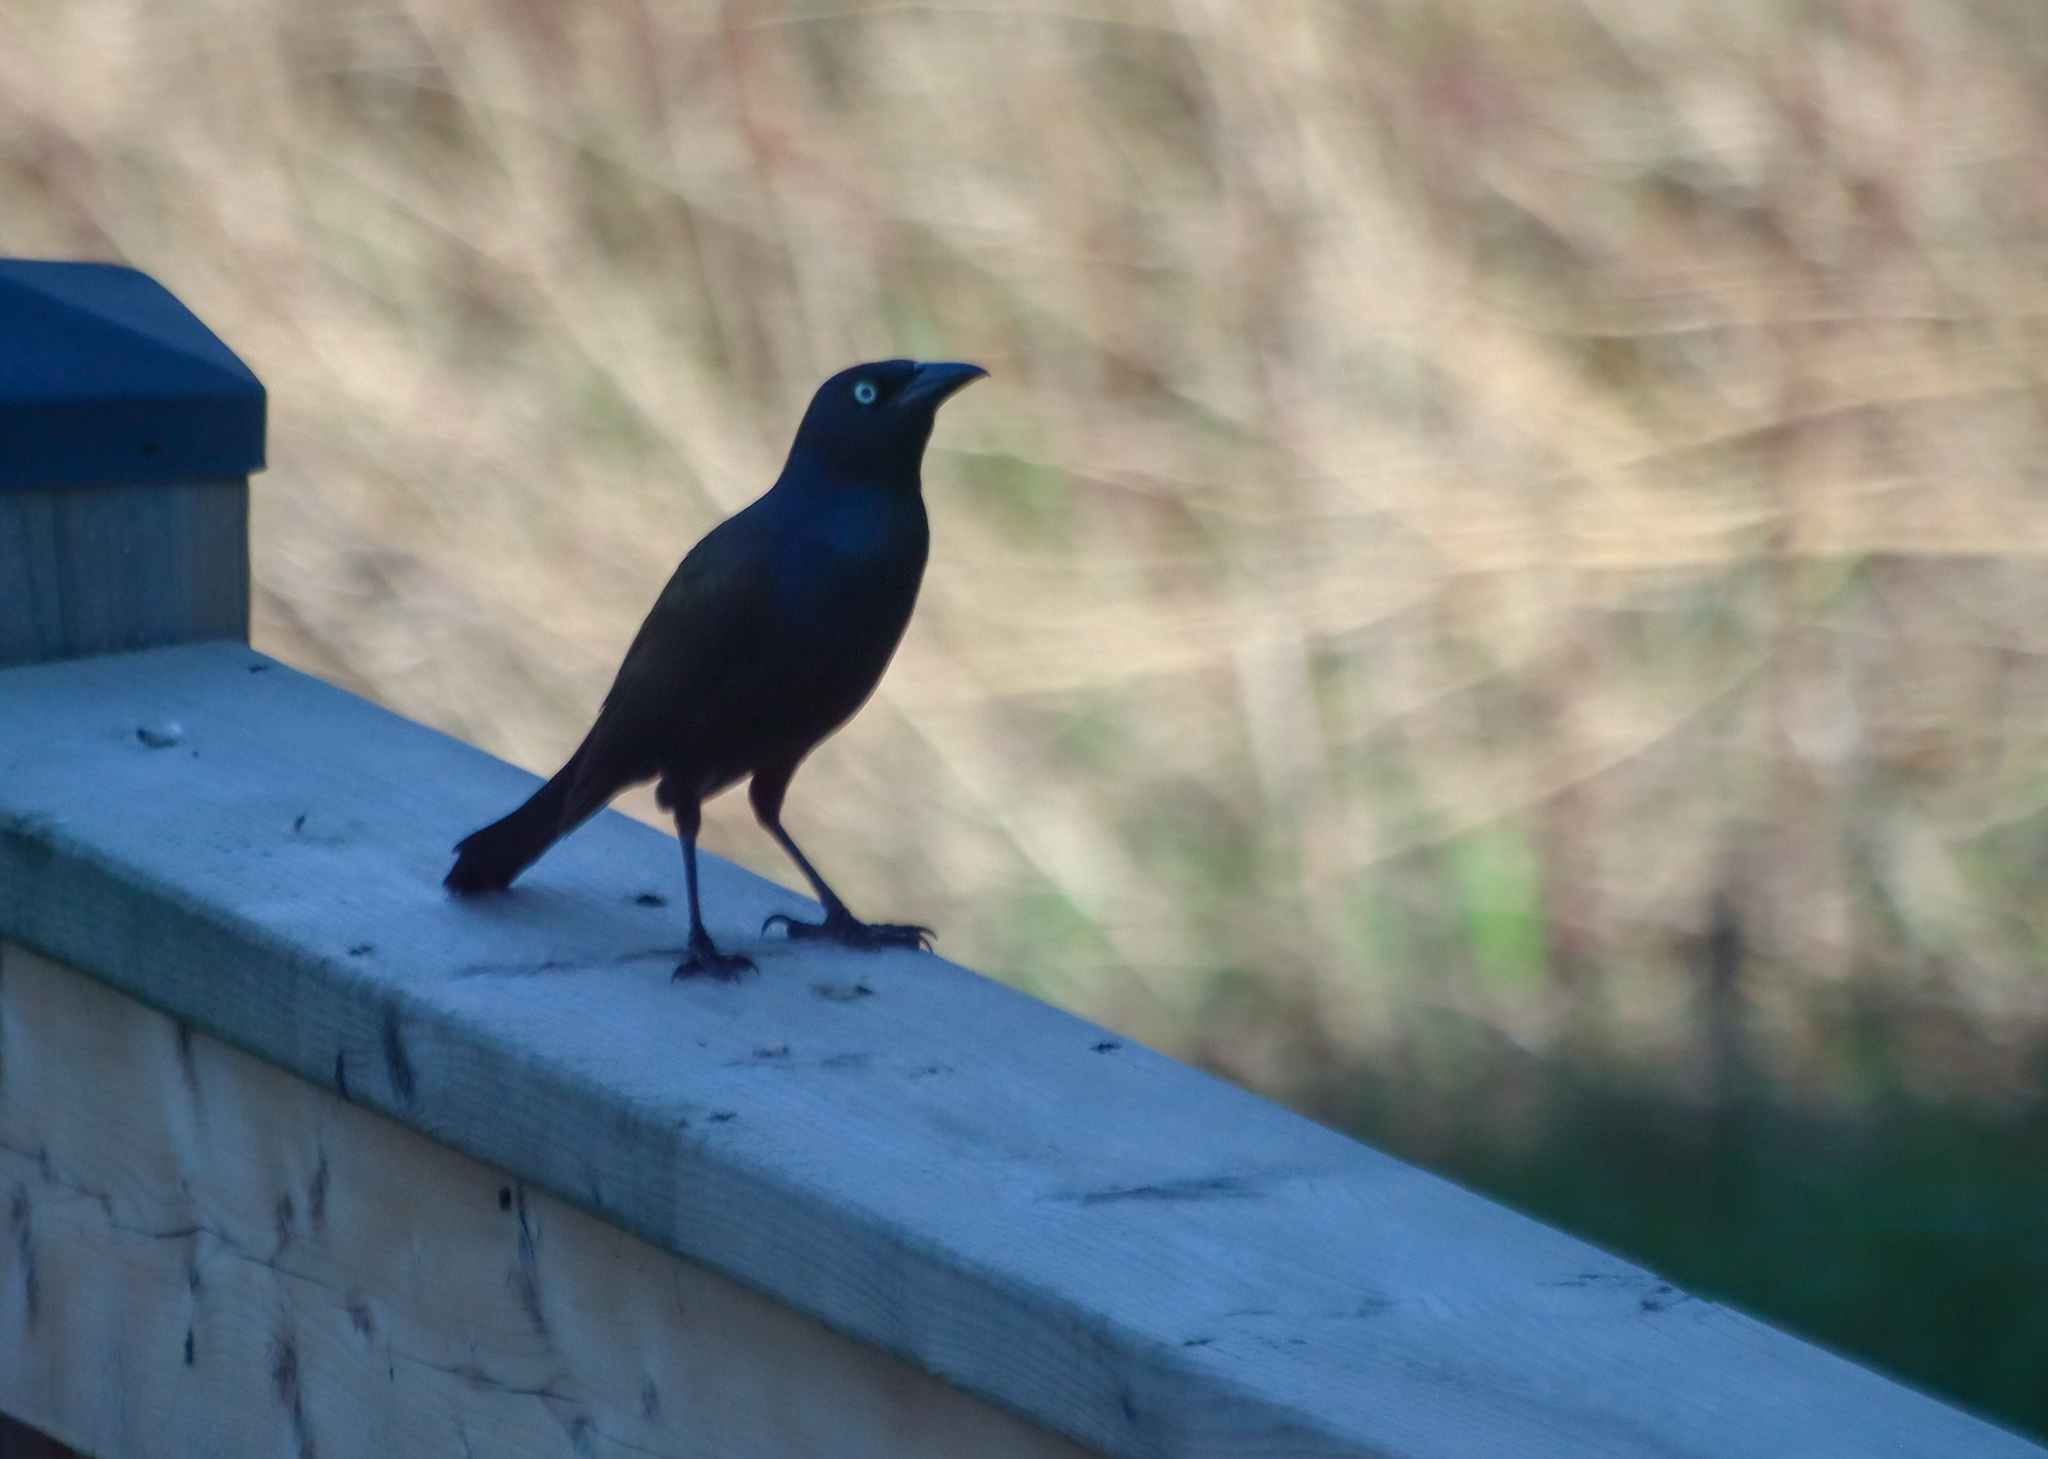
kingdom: Animalia
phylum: Chordata
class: Aves
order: Passeriformes
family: Icteridae
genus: Quiscalus
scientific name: Quiscalus quiscula
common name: Common grackle
